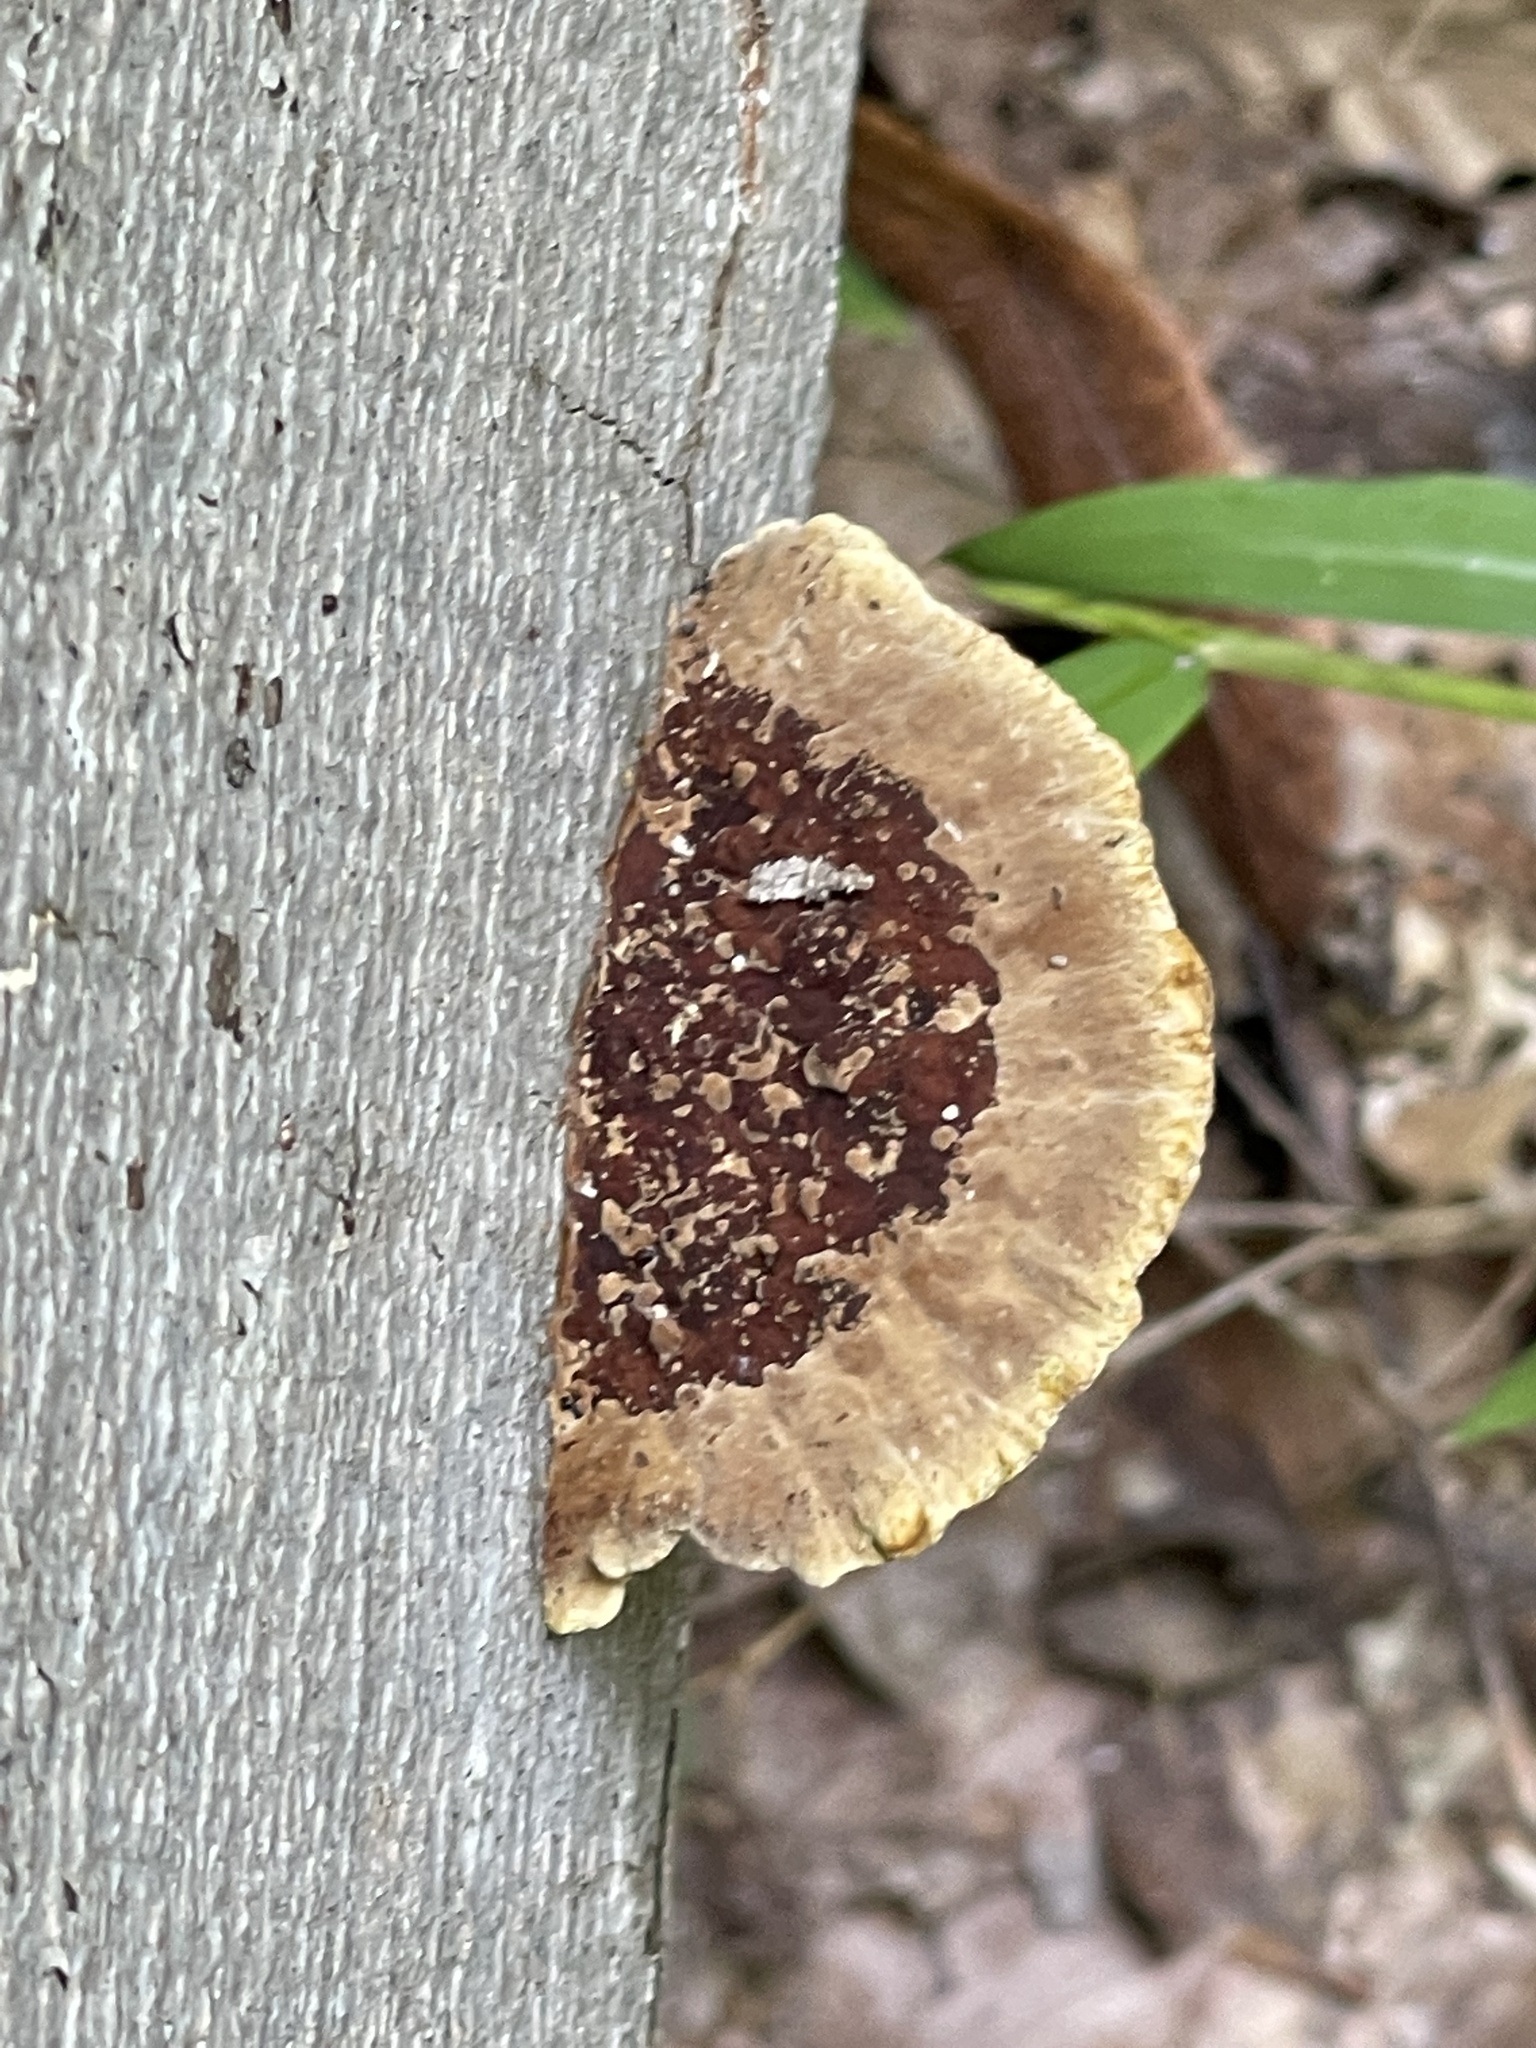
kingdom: Fungi
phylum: Basidiomycota
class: Agaricomycetes
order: Hymenochaetales
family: Hymenochaetaceae
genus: Phellinus
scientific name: Phellinus gilvus
